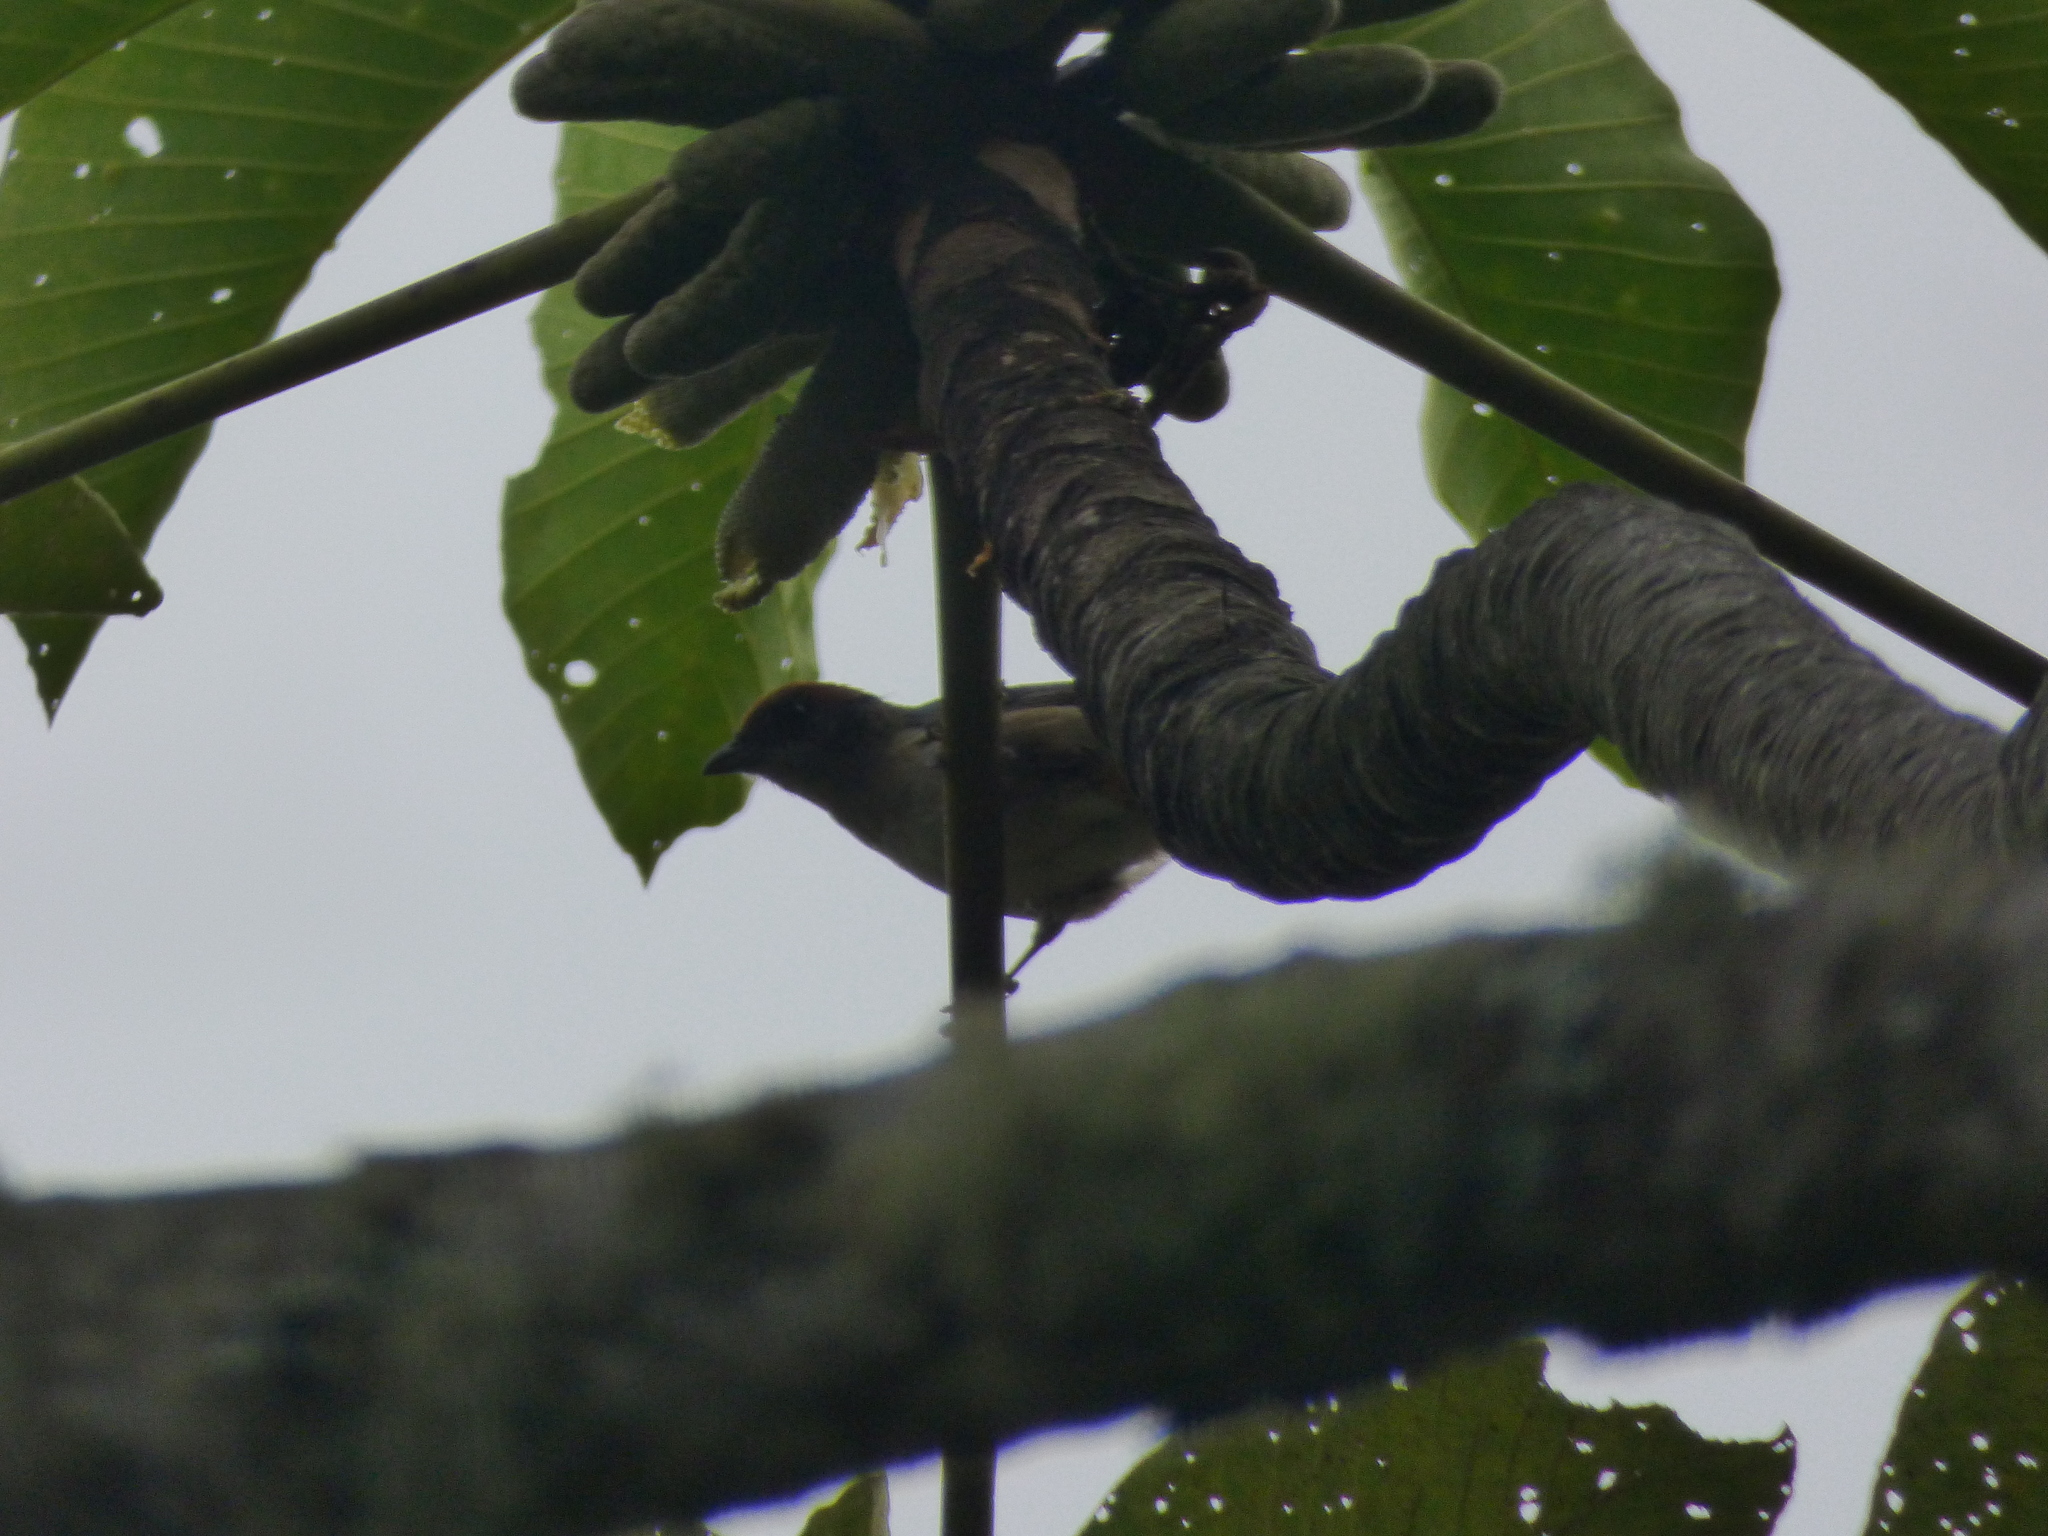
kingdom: Animalia
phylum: Chordata
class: Aves
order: Passeriformes
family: Thraupidae
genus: Stilpnia
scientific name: Stilpnia vitriolina
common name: Scrub tanager
